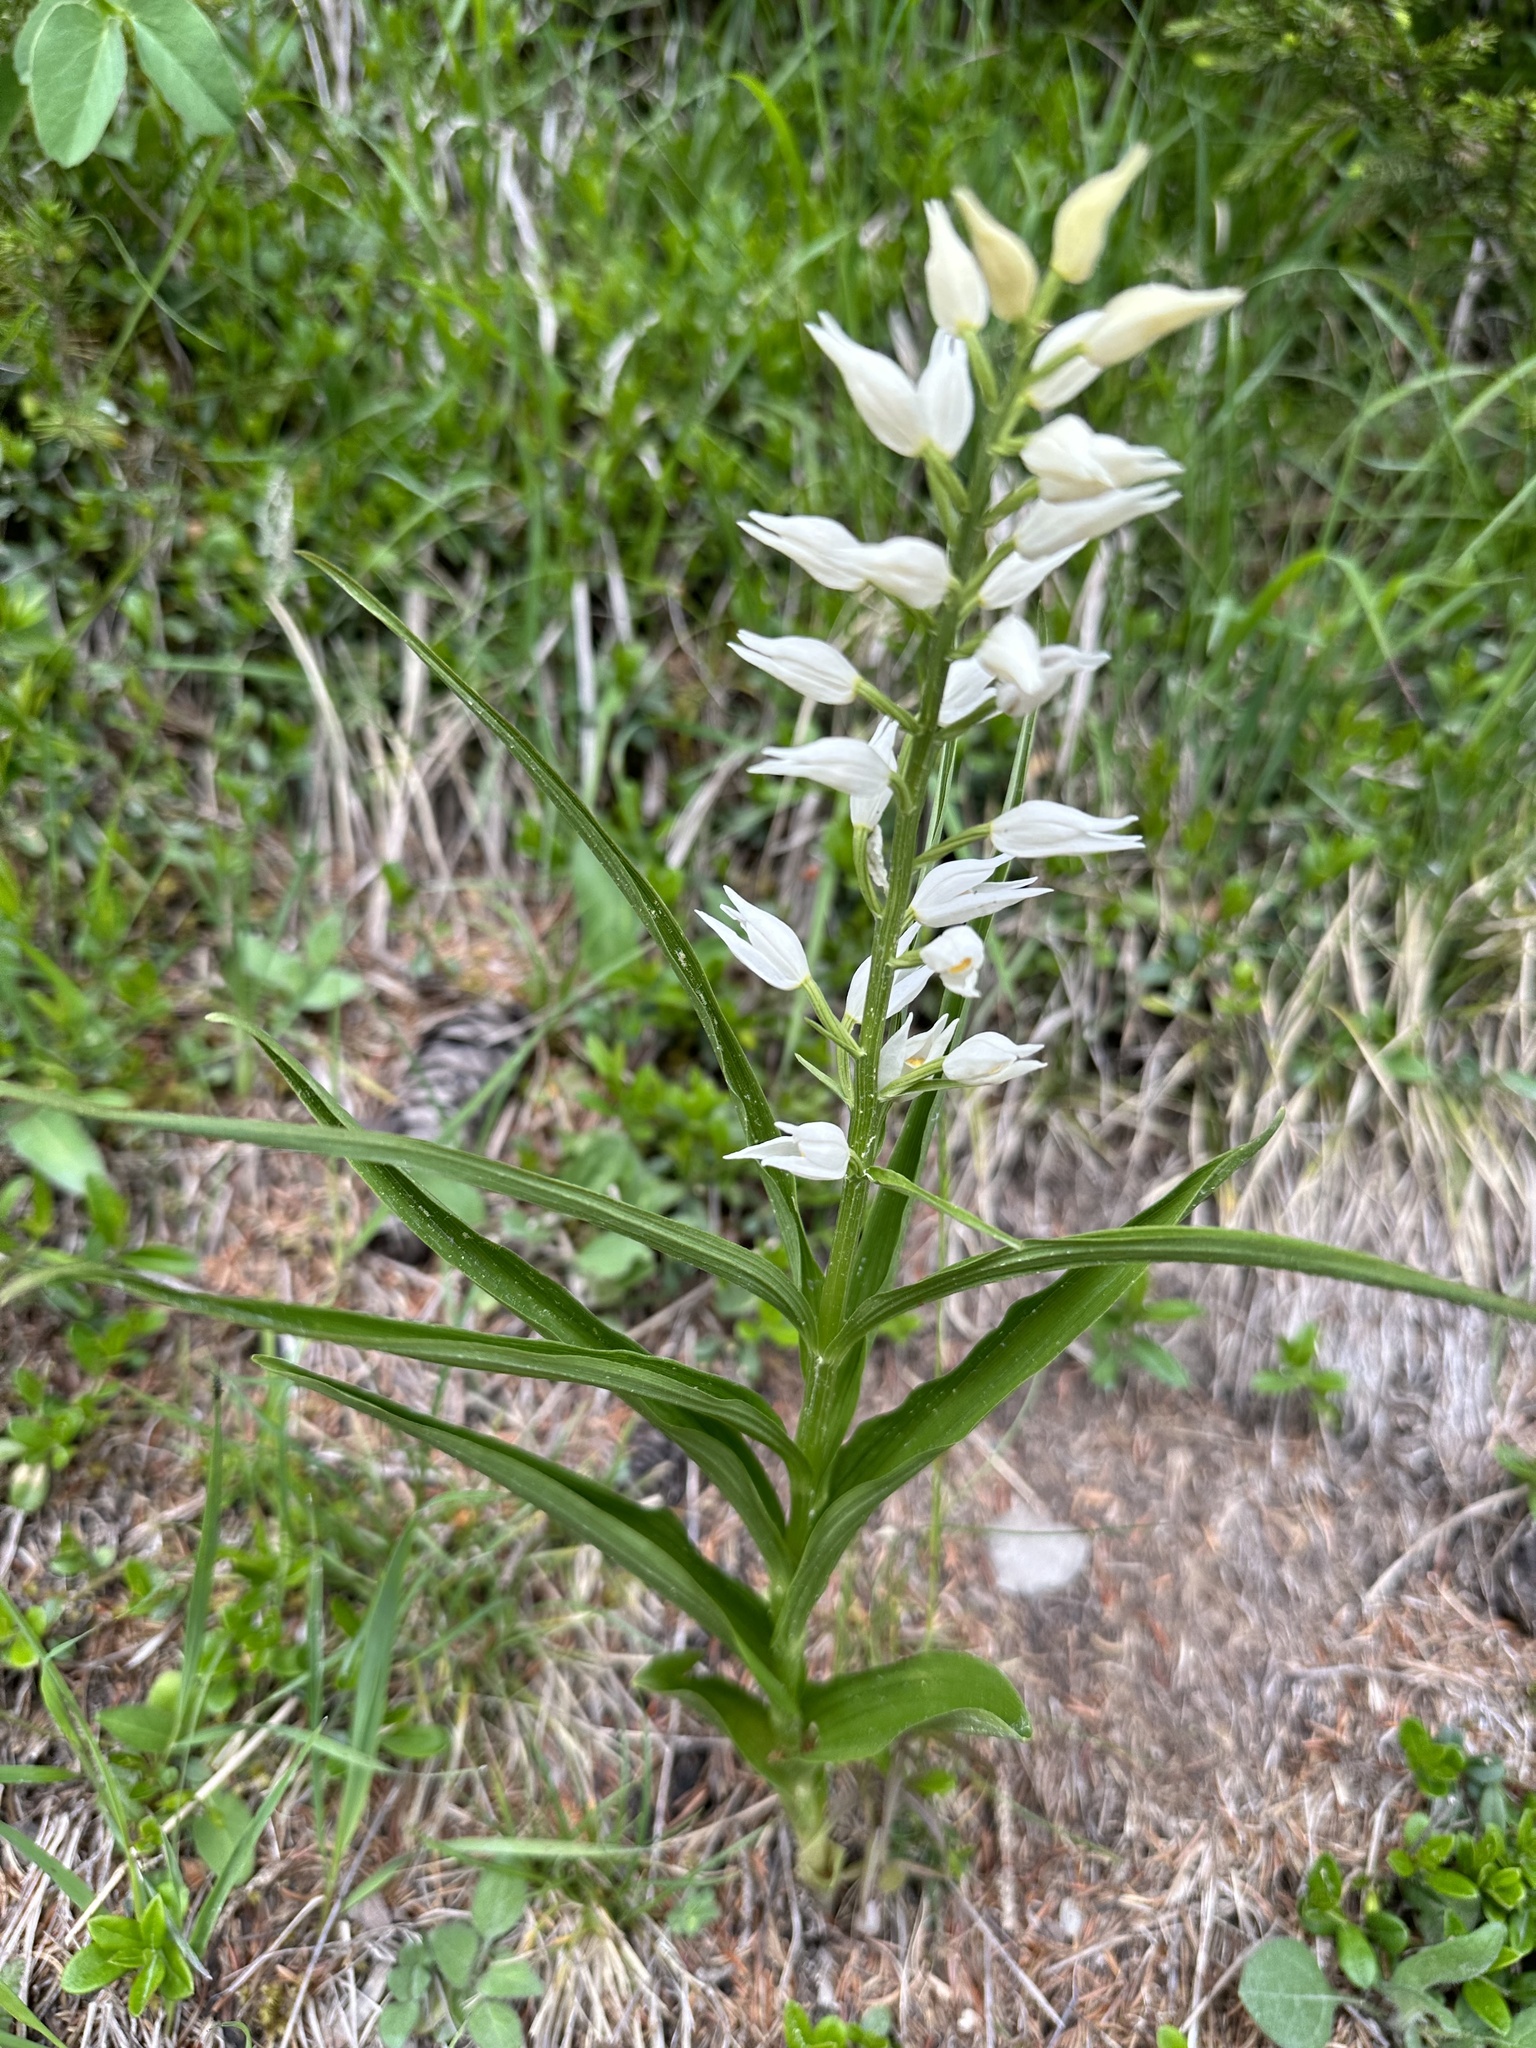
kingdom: Plantae
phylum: Tracheophyta
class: Liliopsida
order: Asparagales
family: Orchidaceae
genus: Cephalanthera
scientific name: Cephalanthera longifolia
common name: Narrow-leaved helleborine
